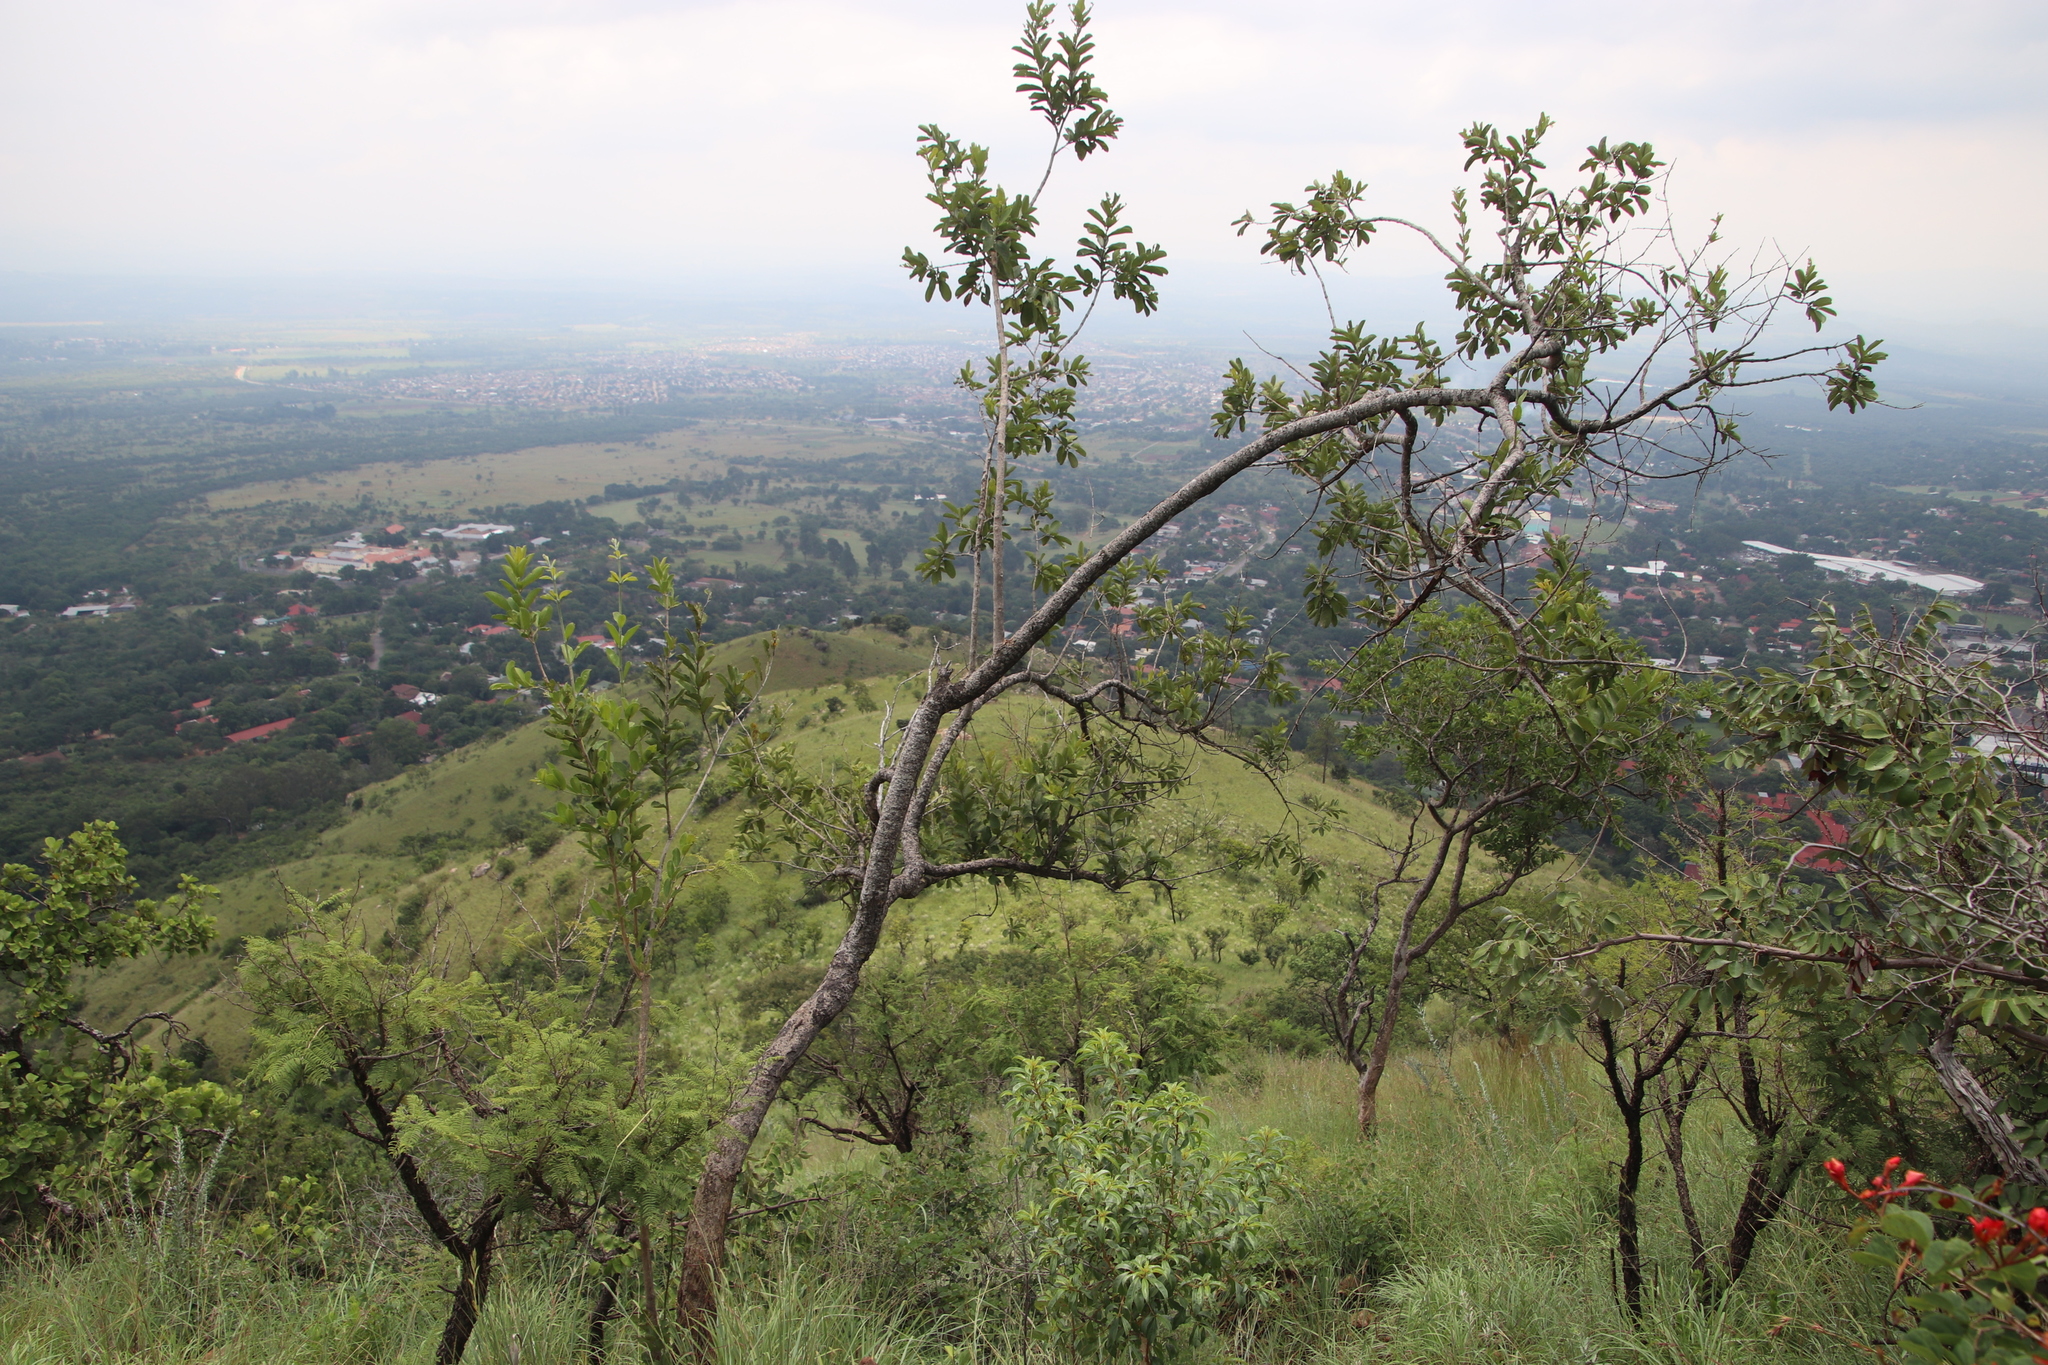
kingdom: Plantae
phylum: Tracheophyta
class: Magnoliopsida
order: Myrtales
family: Combretaceae
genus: Combretum
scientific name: Combretum zeyheri
